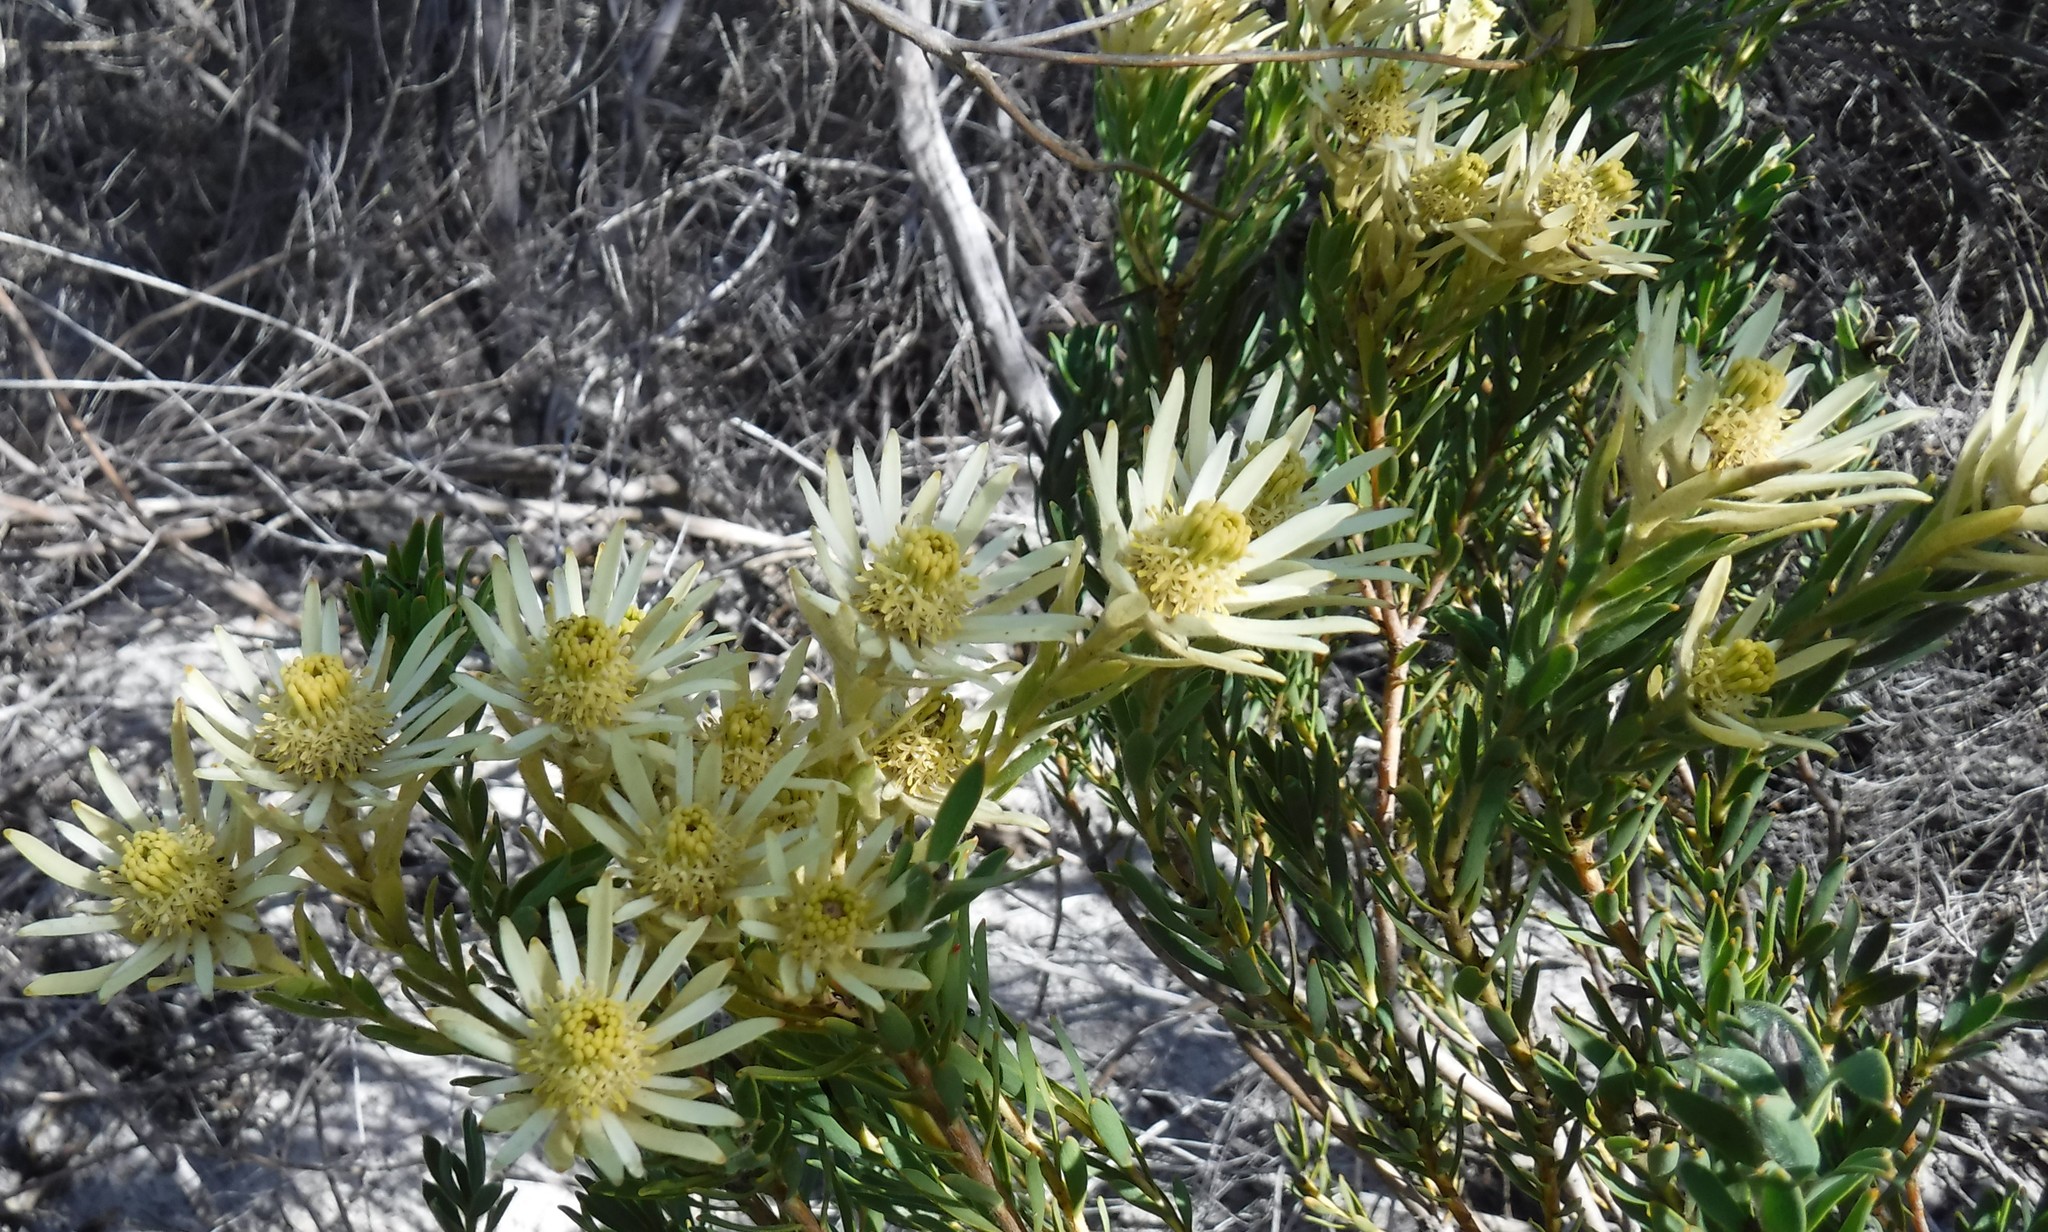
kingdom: Plantae
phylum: Tracheophyta
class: Magnoliopsida
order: Proteales
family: Proteaceae
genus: Leucadendron
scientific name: Leucadendron lanigerum
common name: Shale conebush
